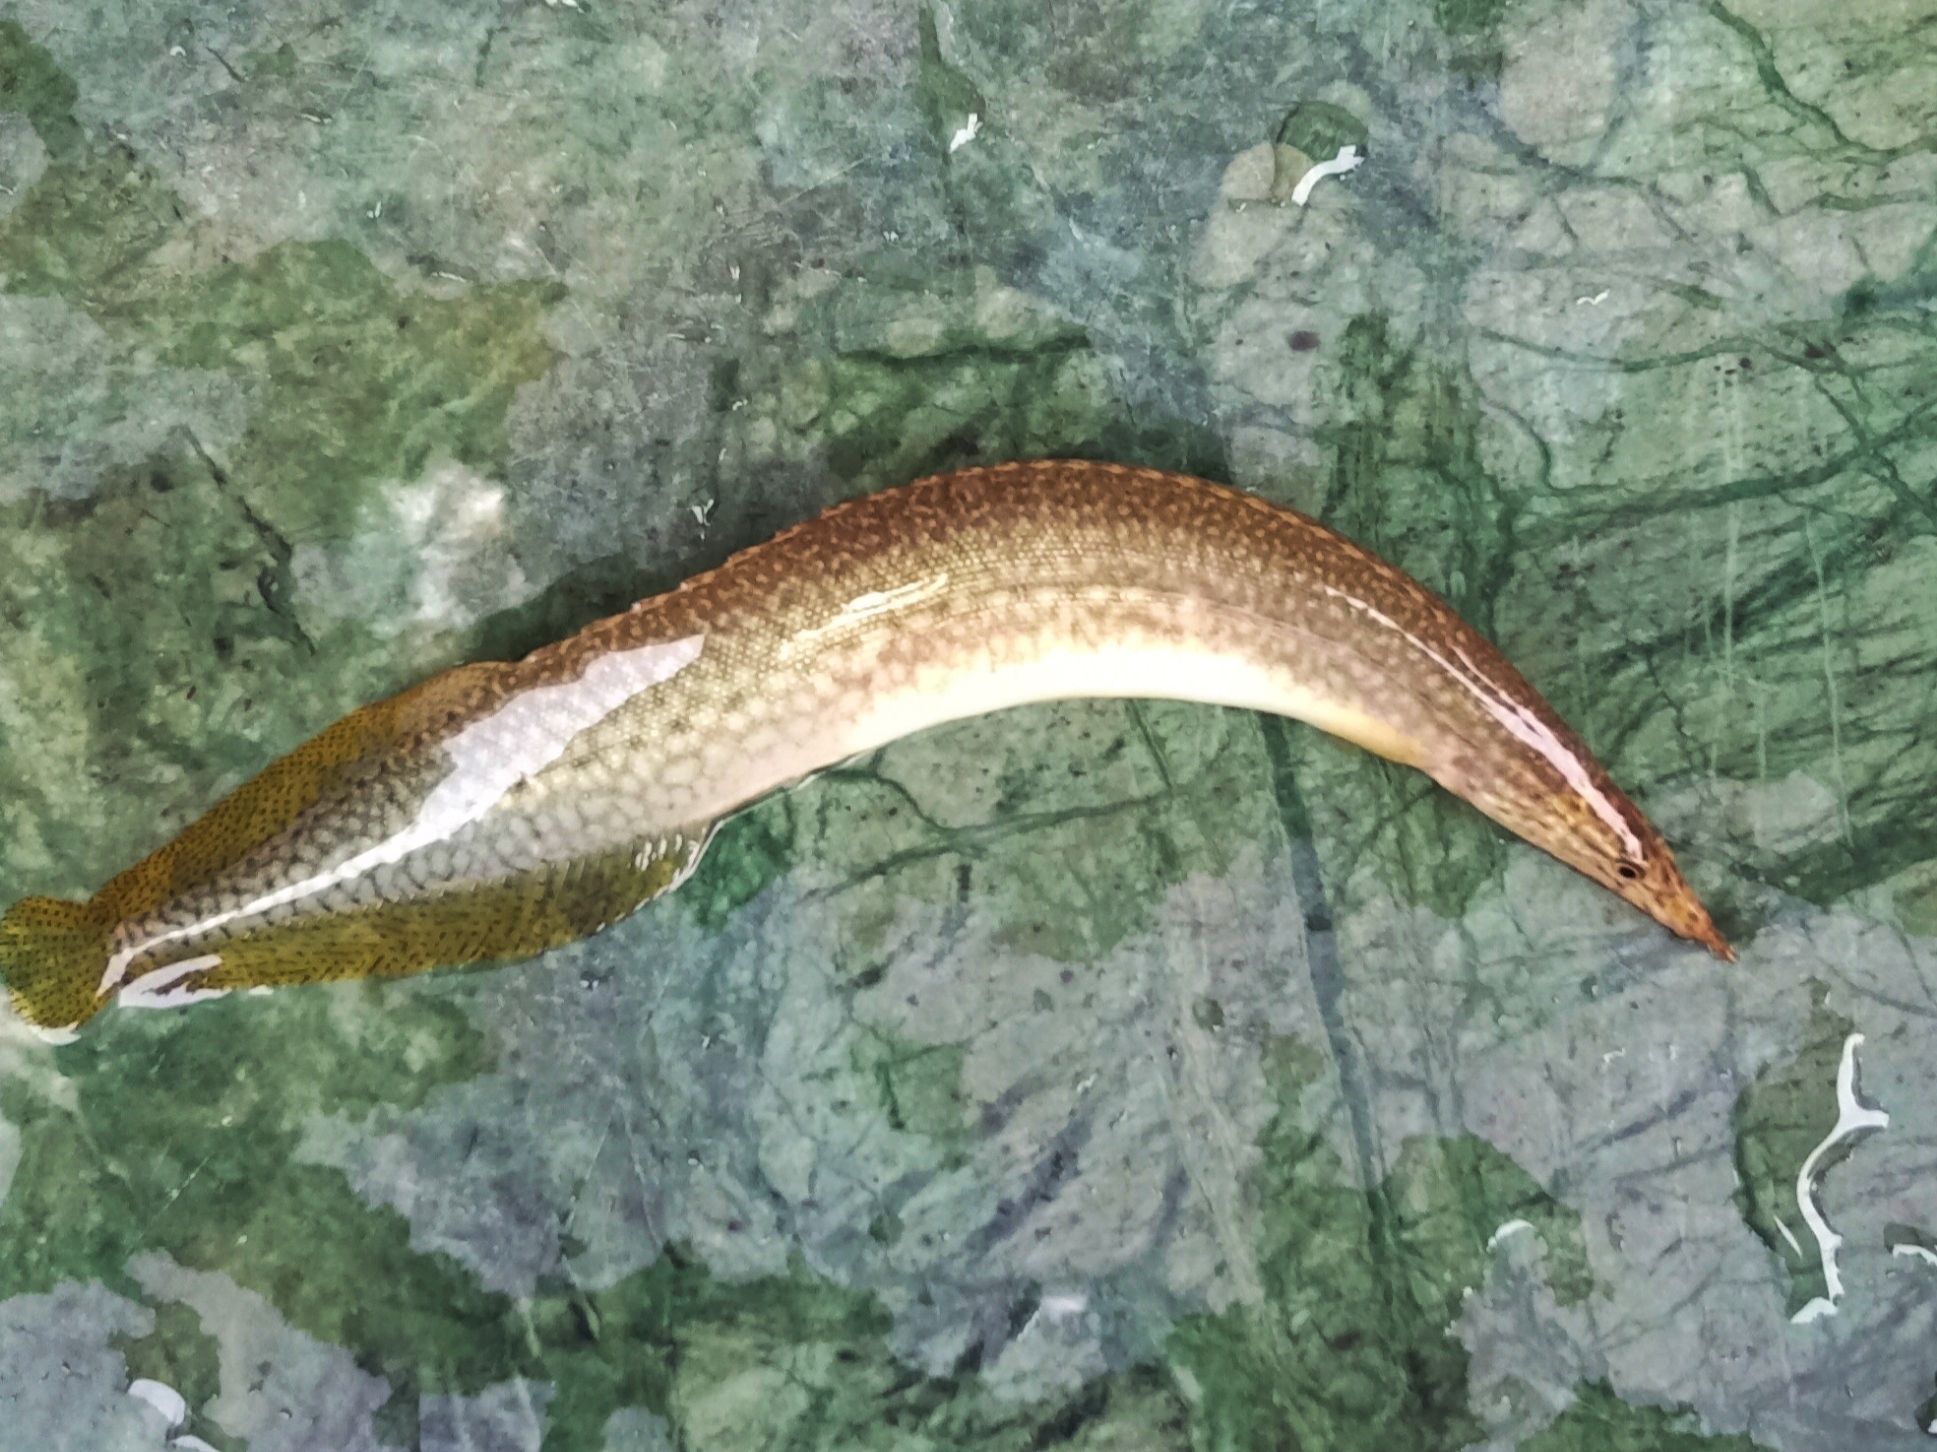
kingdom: Animalia
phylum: Chordata
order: Synbranchiformes
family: Mastacembelidae
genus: Macrognathus
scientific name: Macrognathus pancalus
